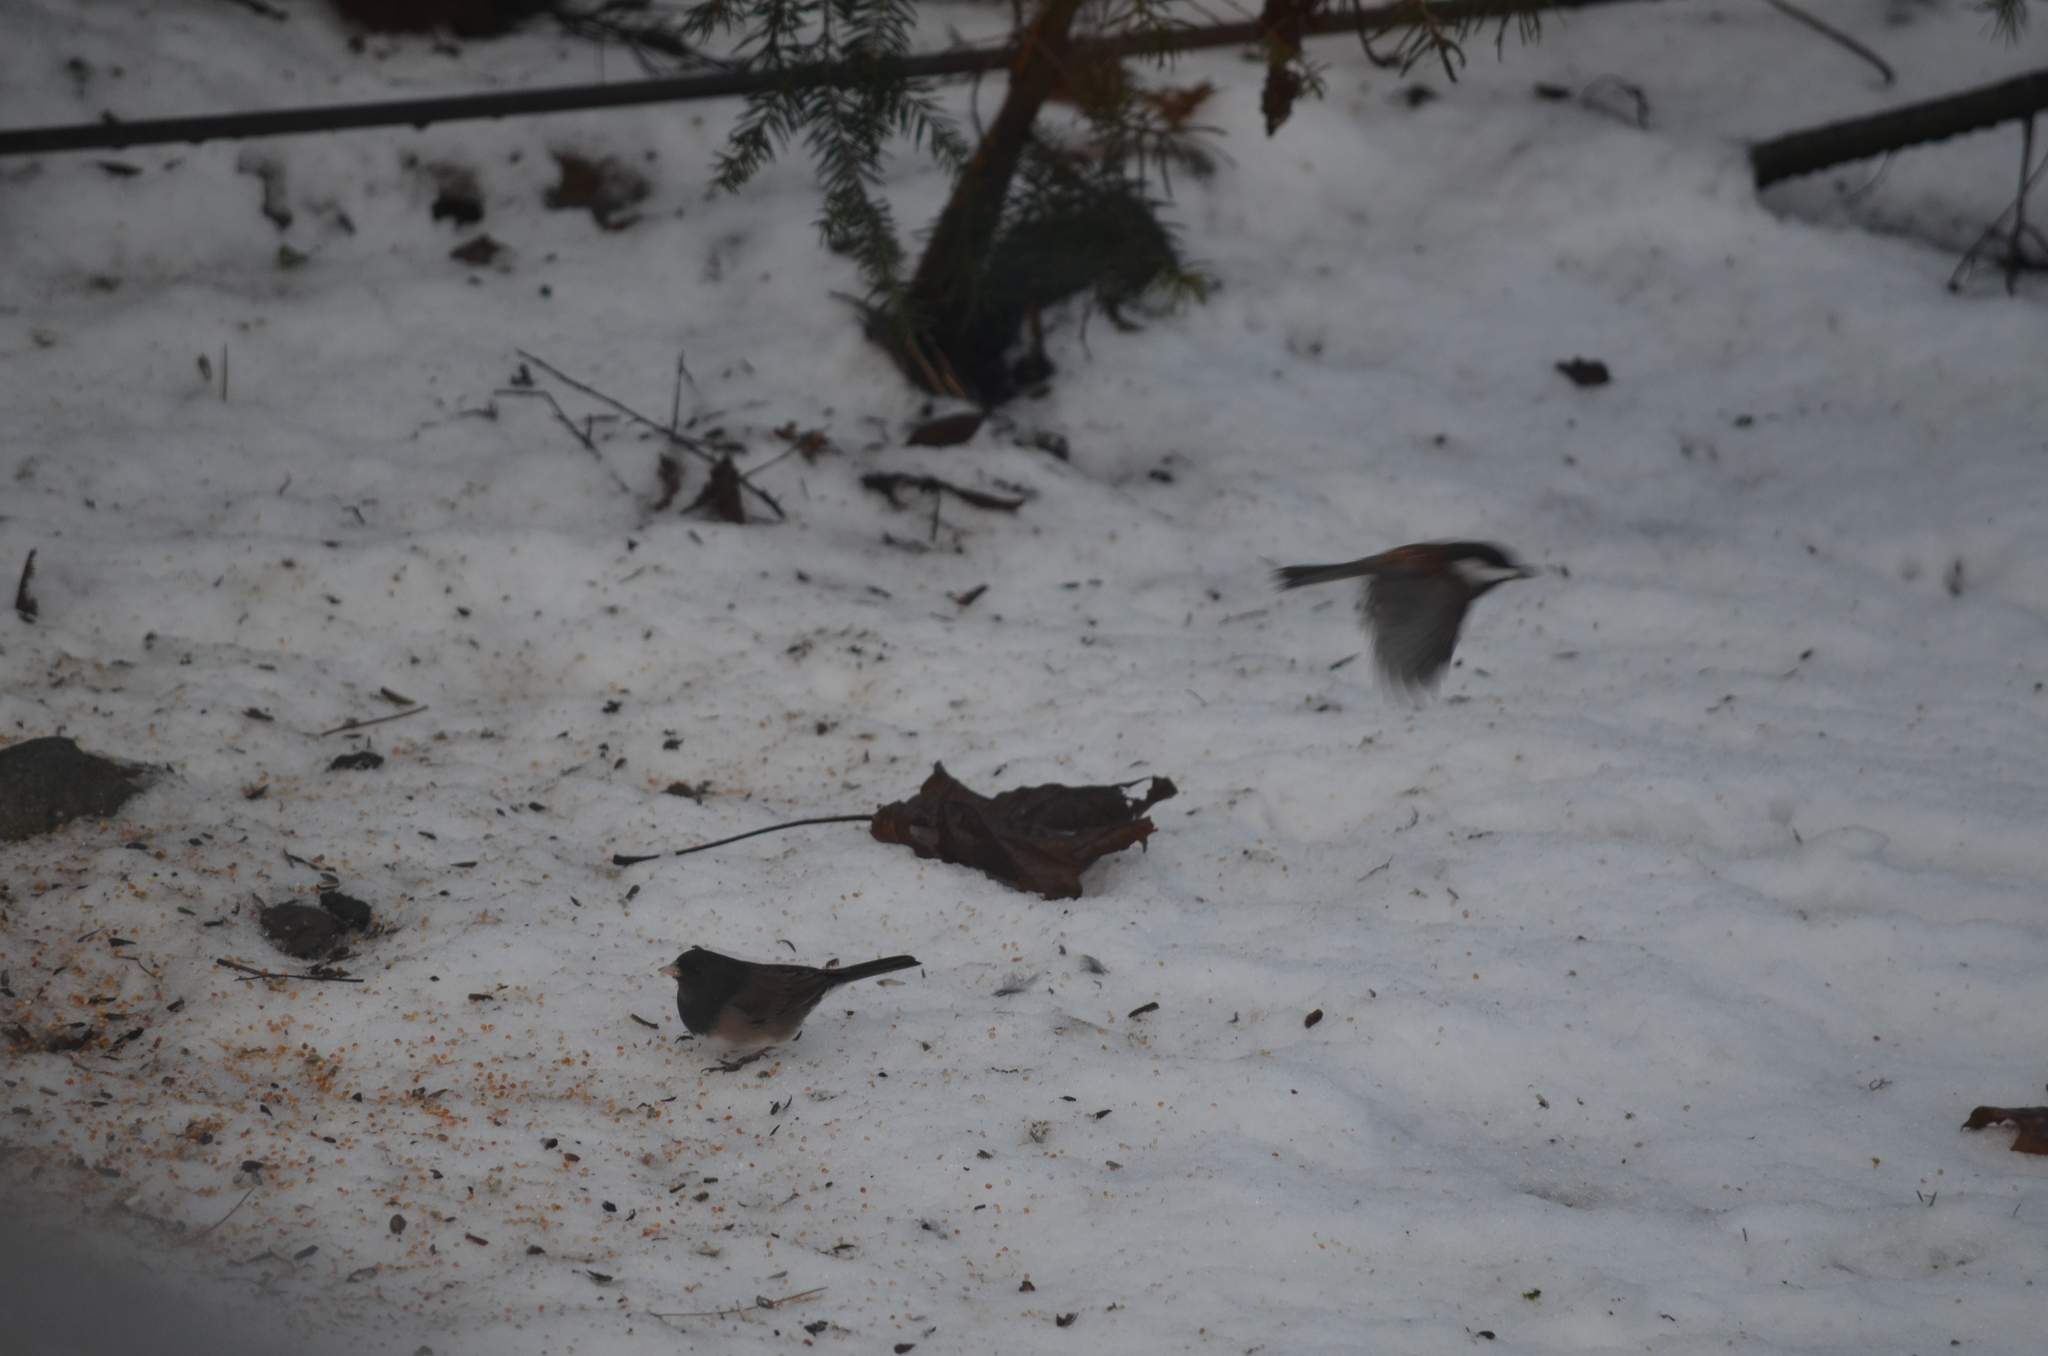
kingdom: Animalia
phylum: Chordata
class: Aves
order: Passeriformes
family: Paridae
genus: Poecile
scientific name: Poecile rufescens
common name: Chestnut-backed chickadee
